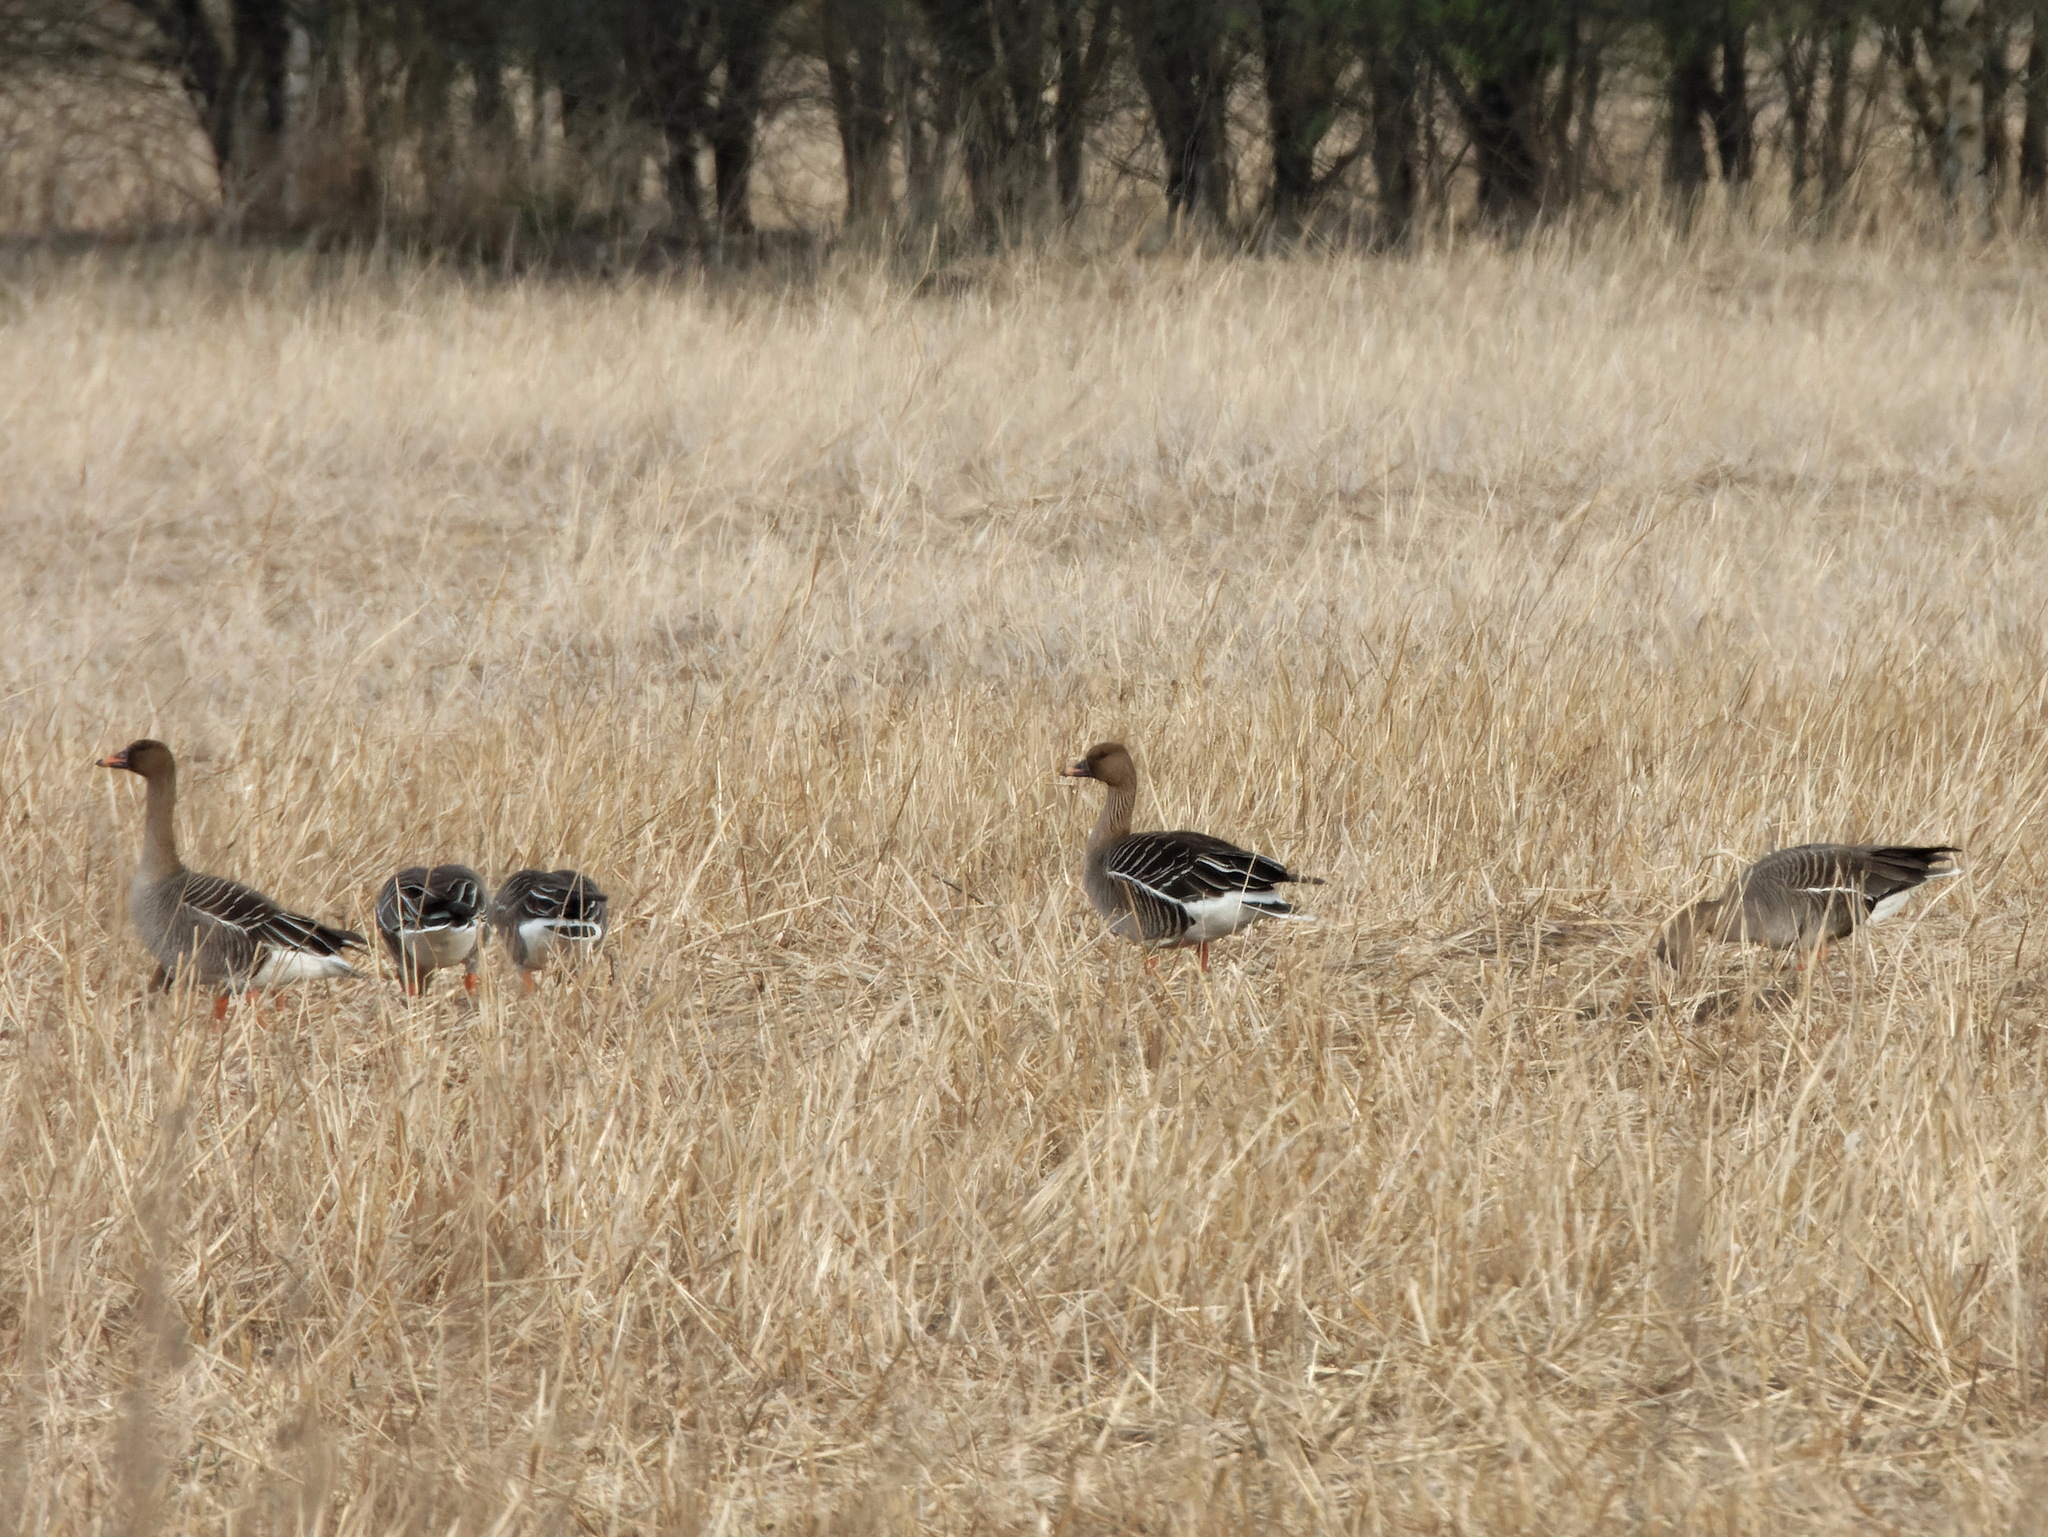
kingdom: Animalia
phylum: Chordata
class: Aves
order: Anseriformes
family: Anatidae
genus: Anser
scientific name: Anser fabalis
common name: Bean goose
